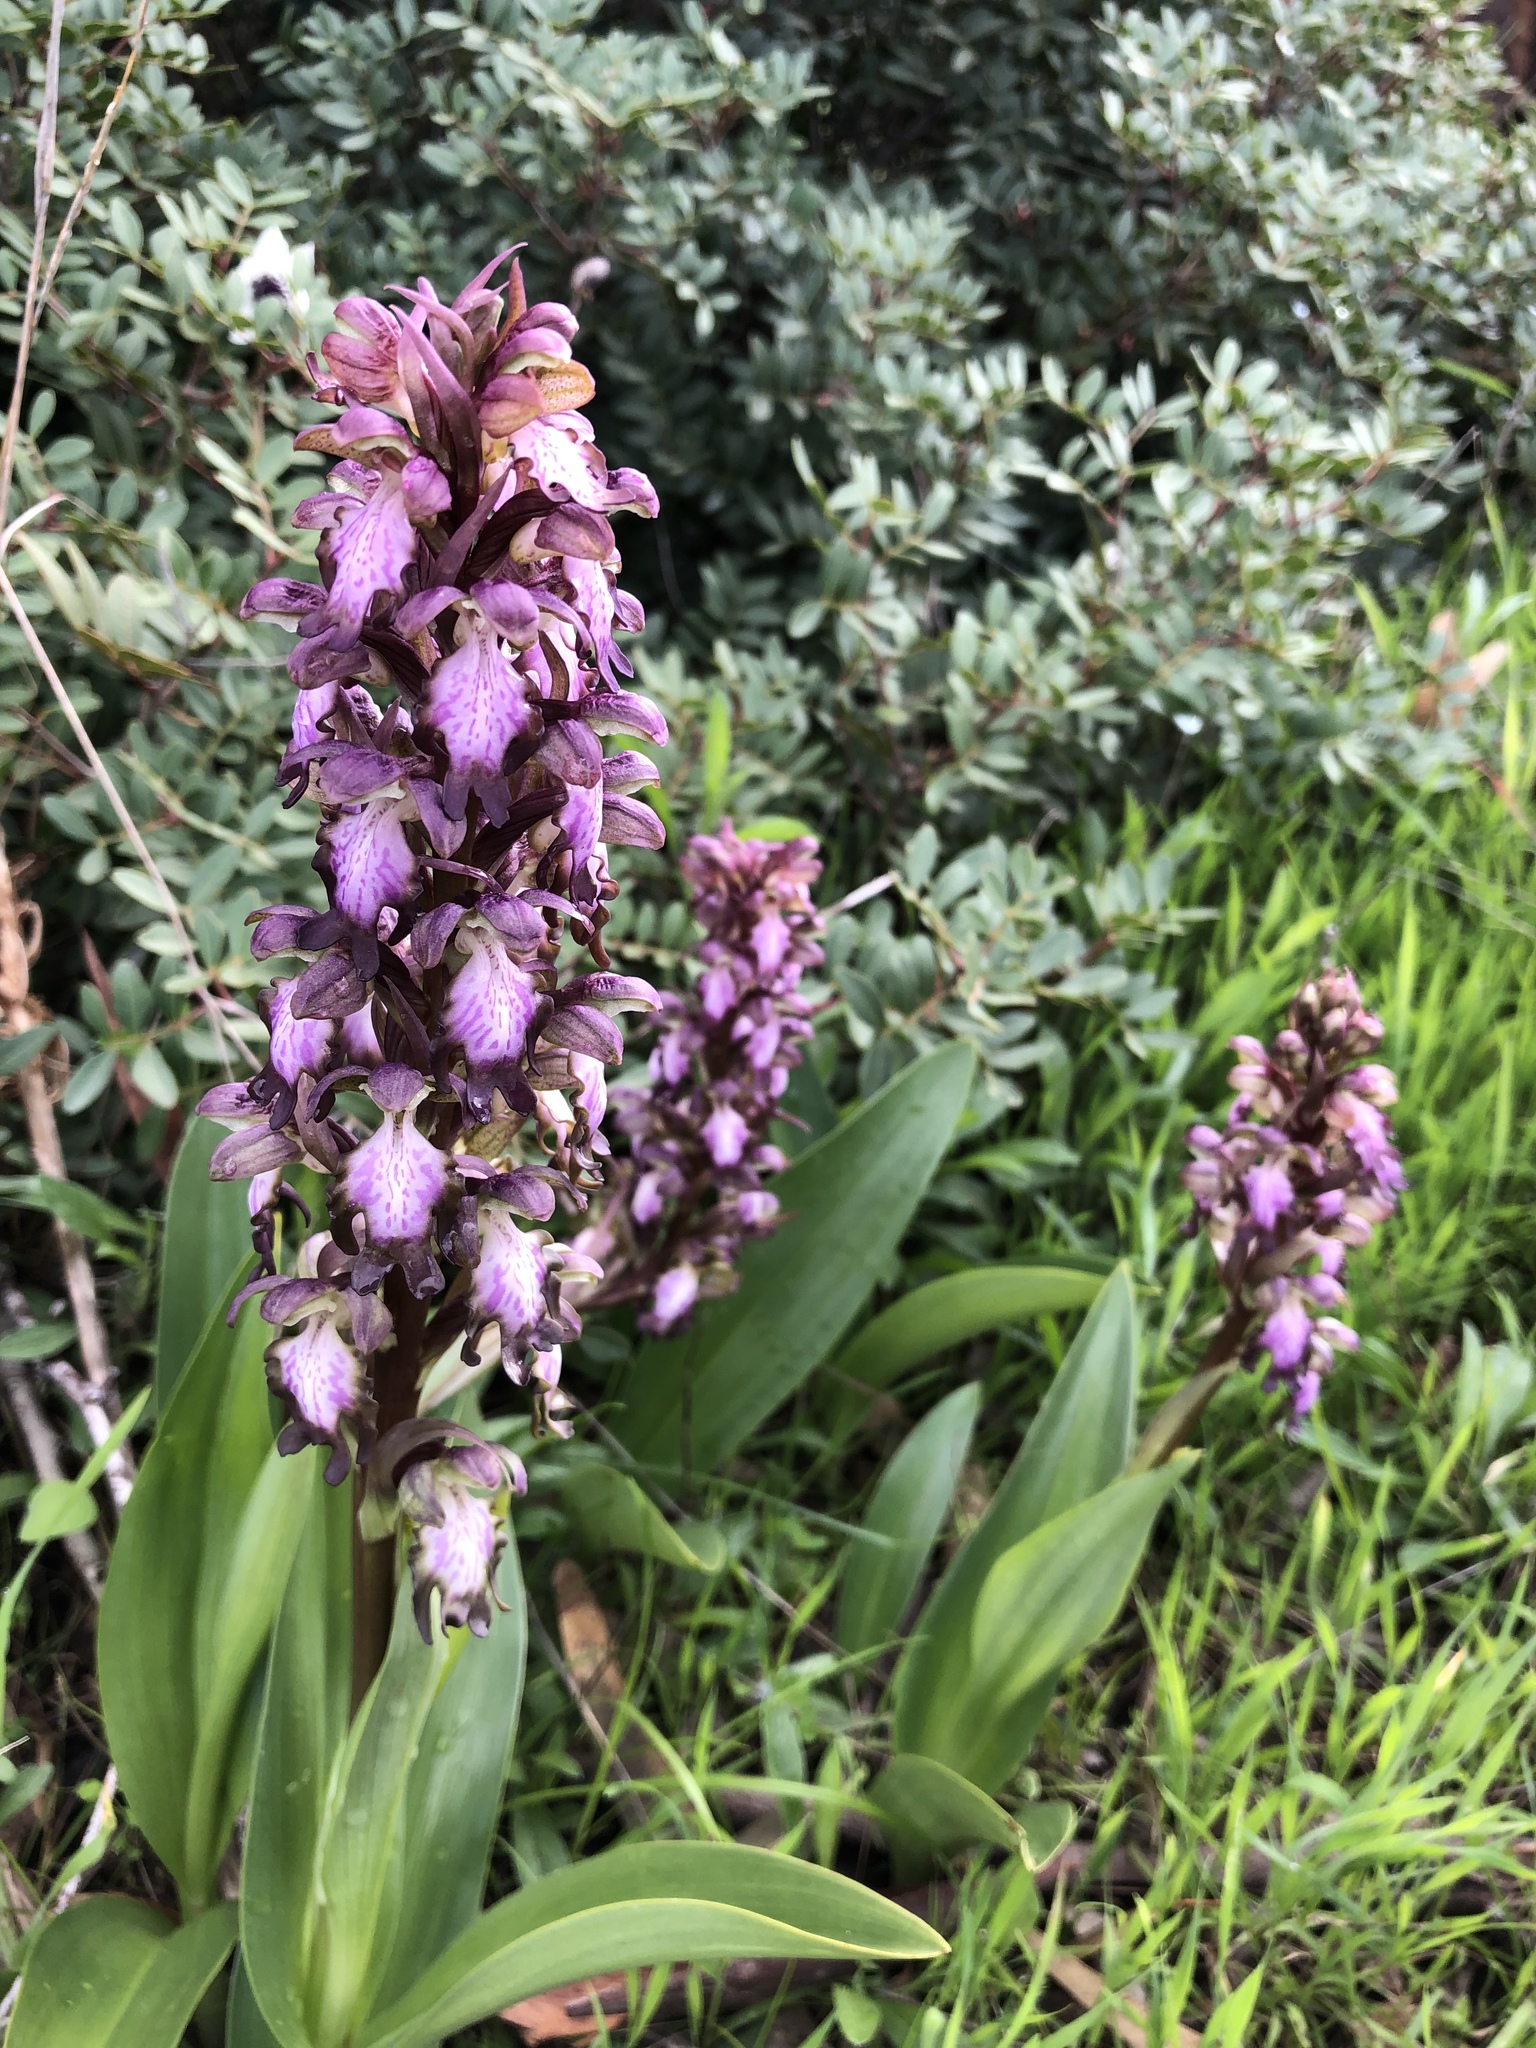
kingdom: Plantae
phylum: Tracheophyta
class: Liliopsida
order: Asparagales
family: Orchidaceae
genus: Himantoglossum
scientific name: Himantoglossum robertianum
